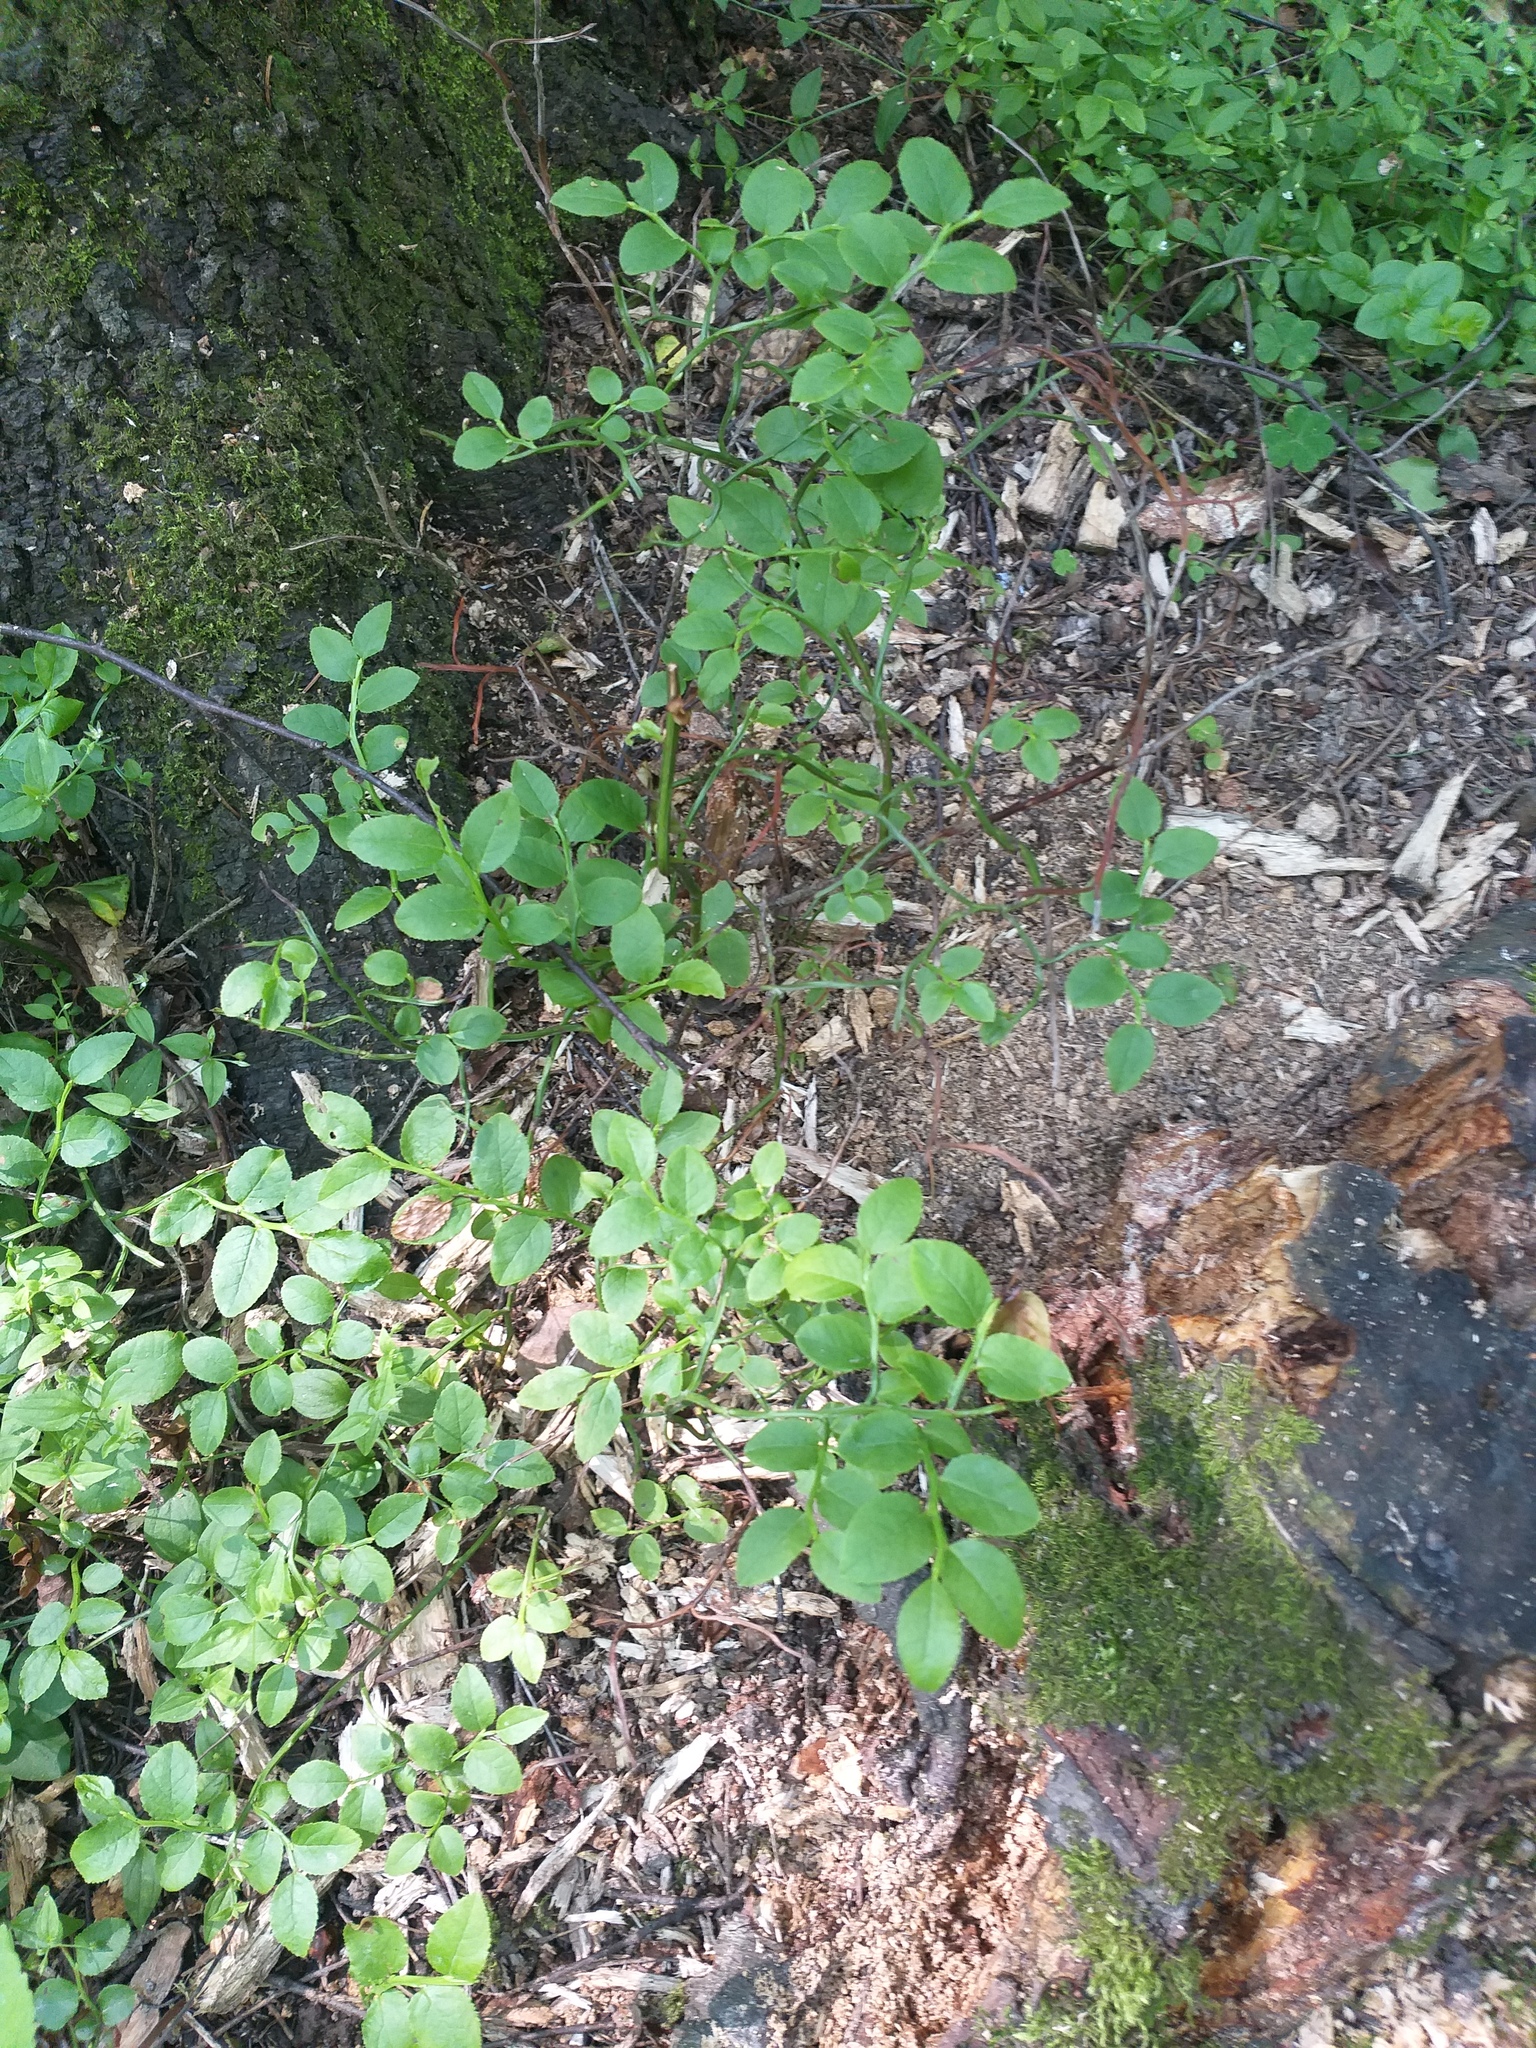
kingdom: Plantae
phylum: Tracheophyta
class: Magnoliopsida
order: Ericales
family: Ericaceae
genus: Vaccinium
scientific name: Vaccinium myrtillus
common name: Bilberry
